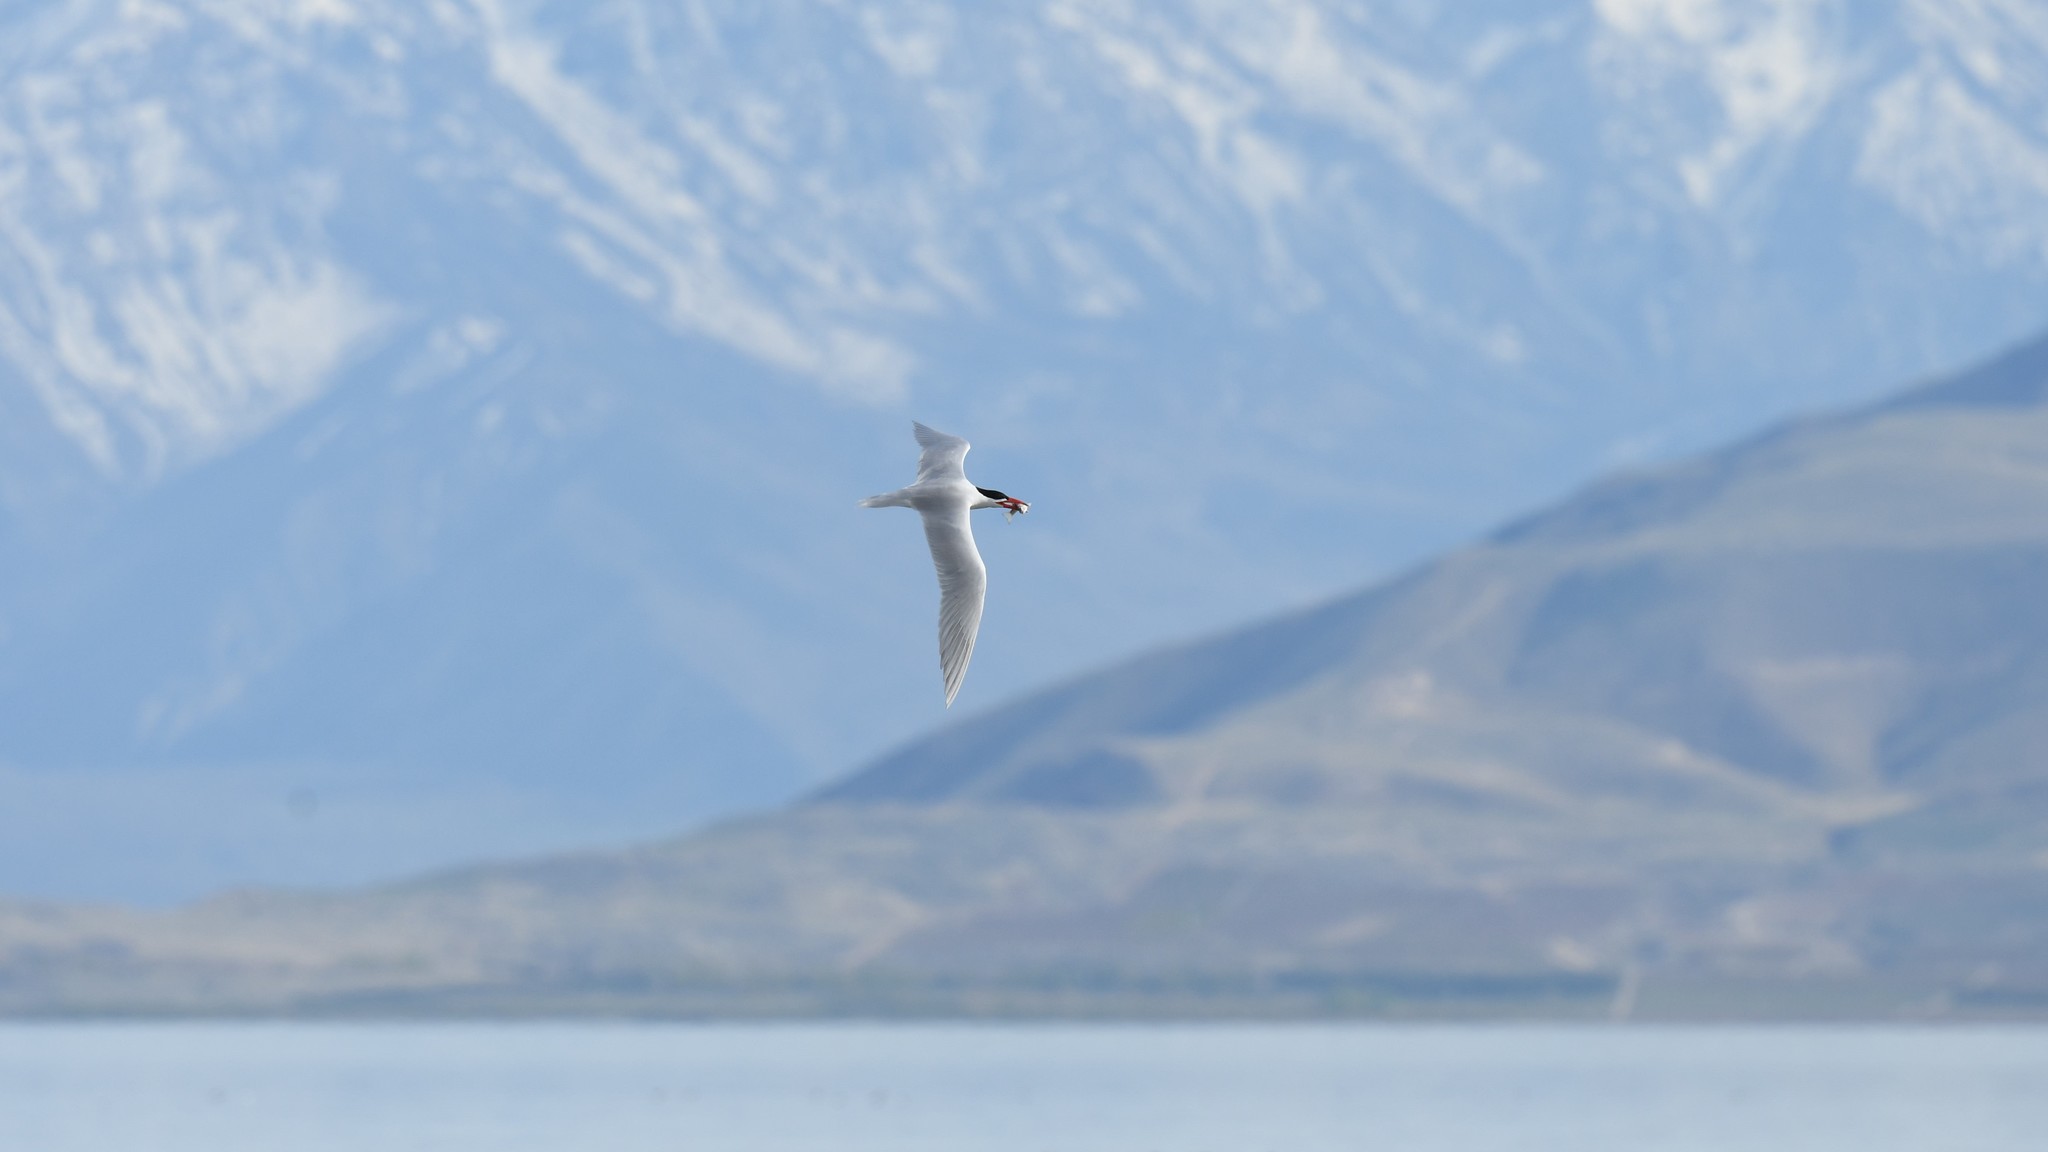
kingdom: Animalia
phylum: Chordata
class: Aves
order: Charadriiformes
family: Laridae
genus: Hydroprogne
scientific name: Hydroprogne caspia
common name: Caspian tern
